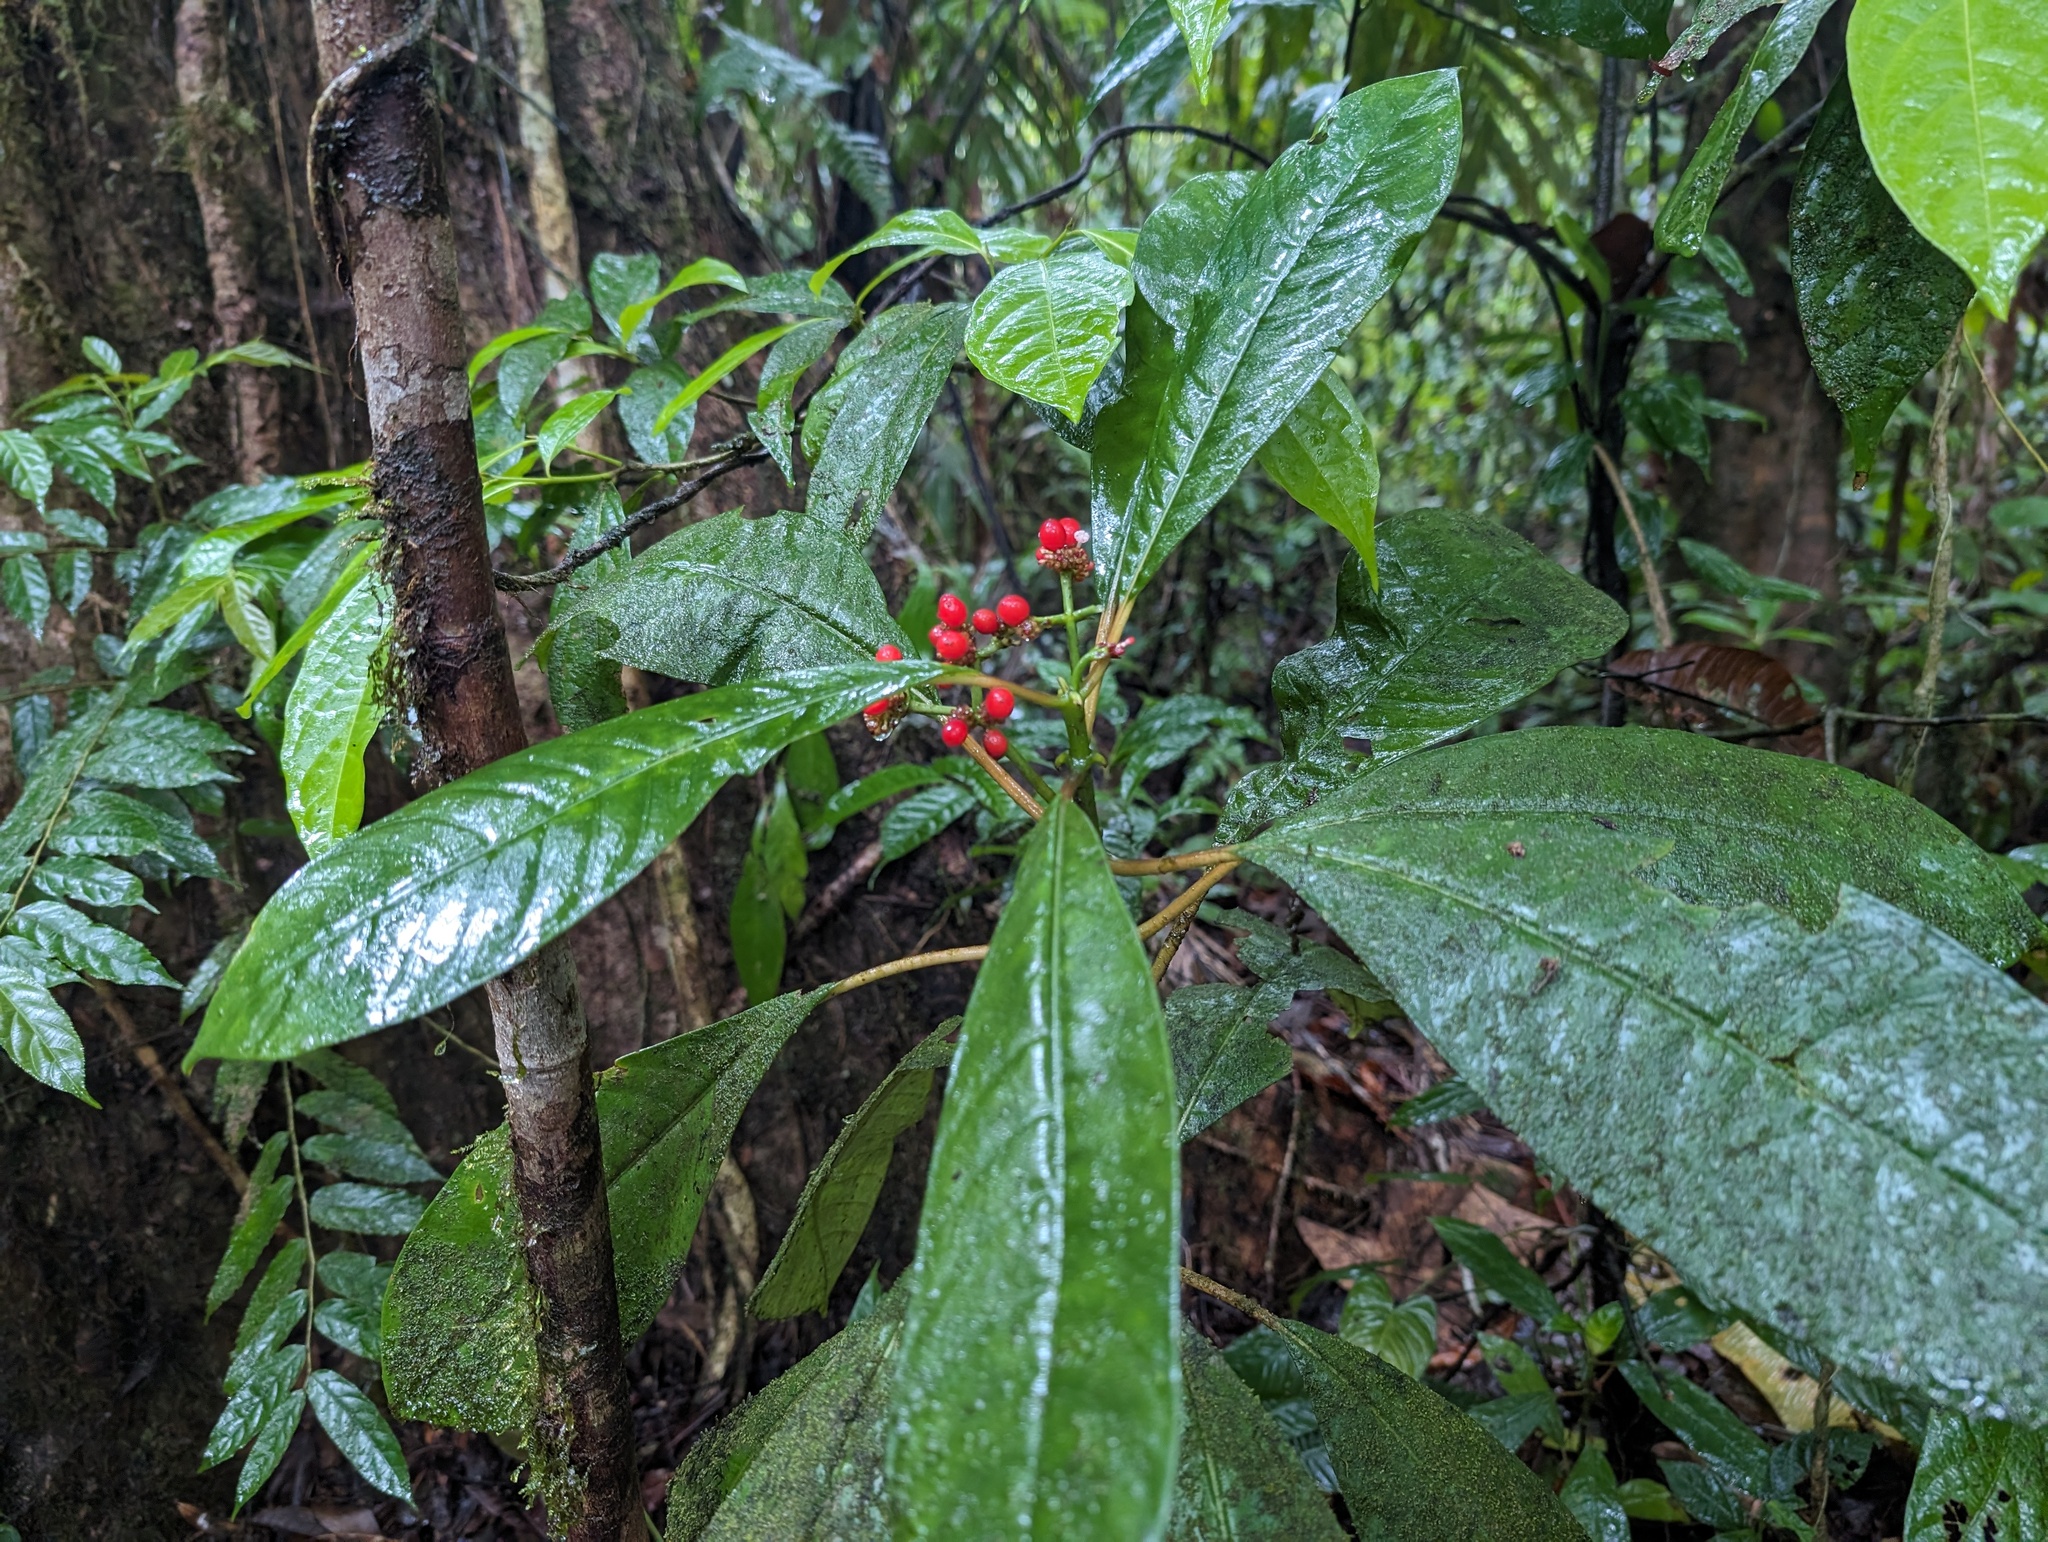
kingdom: Plantae
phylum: Tracheophyta
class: Magnoliopsida
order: Gentianales
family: Rubiaceae
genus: Notopleura
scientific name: Notopleura uliginosa
